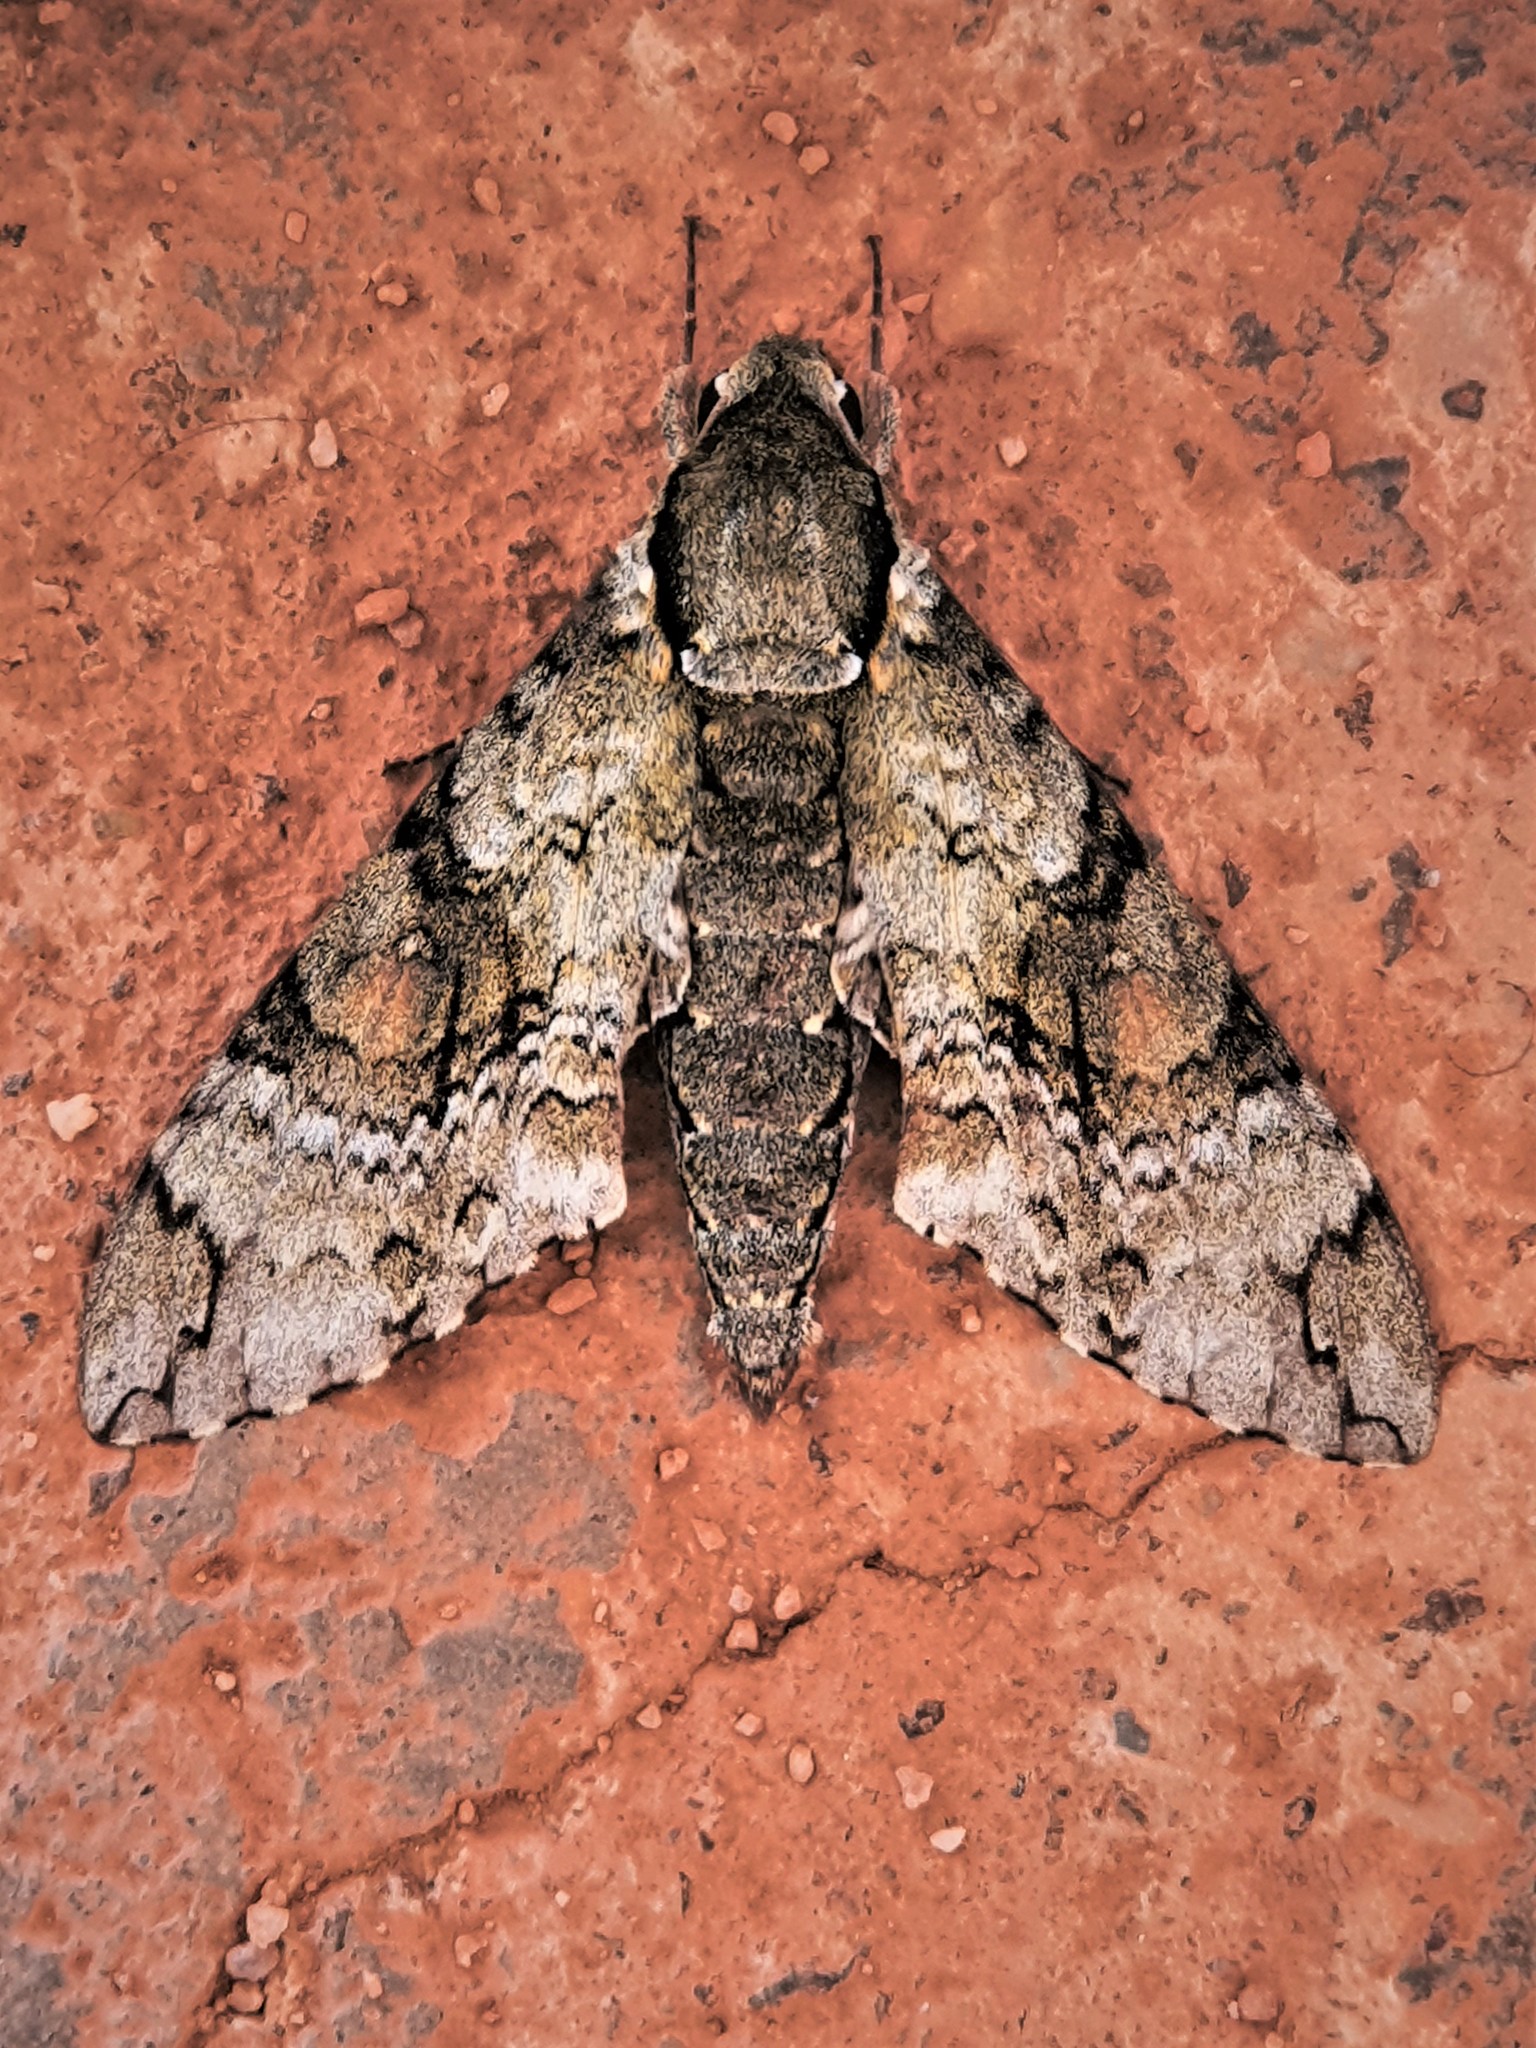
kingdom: Animalia
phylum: Arthropoda
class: Insecta
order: Lepidoptera
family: Sphingidae
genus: Manduca
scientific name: Manduca florestan
